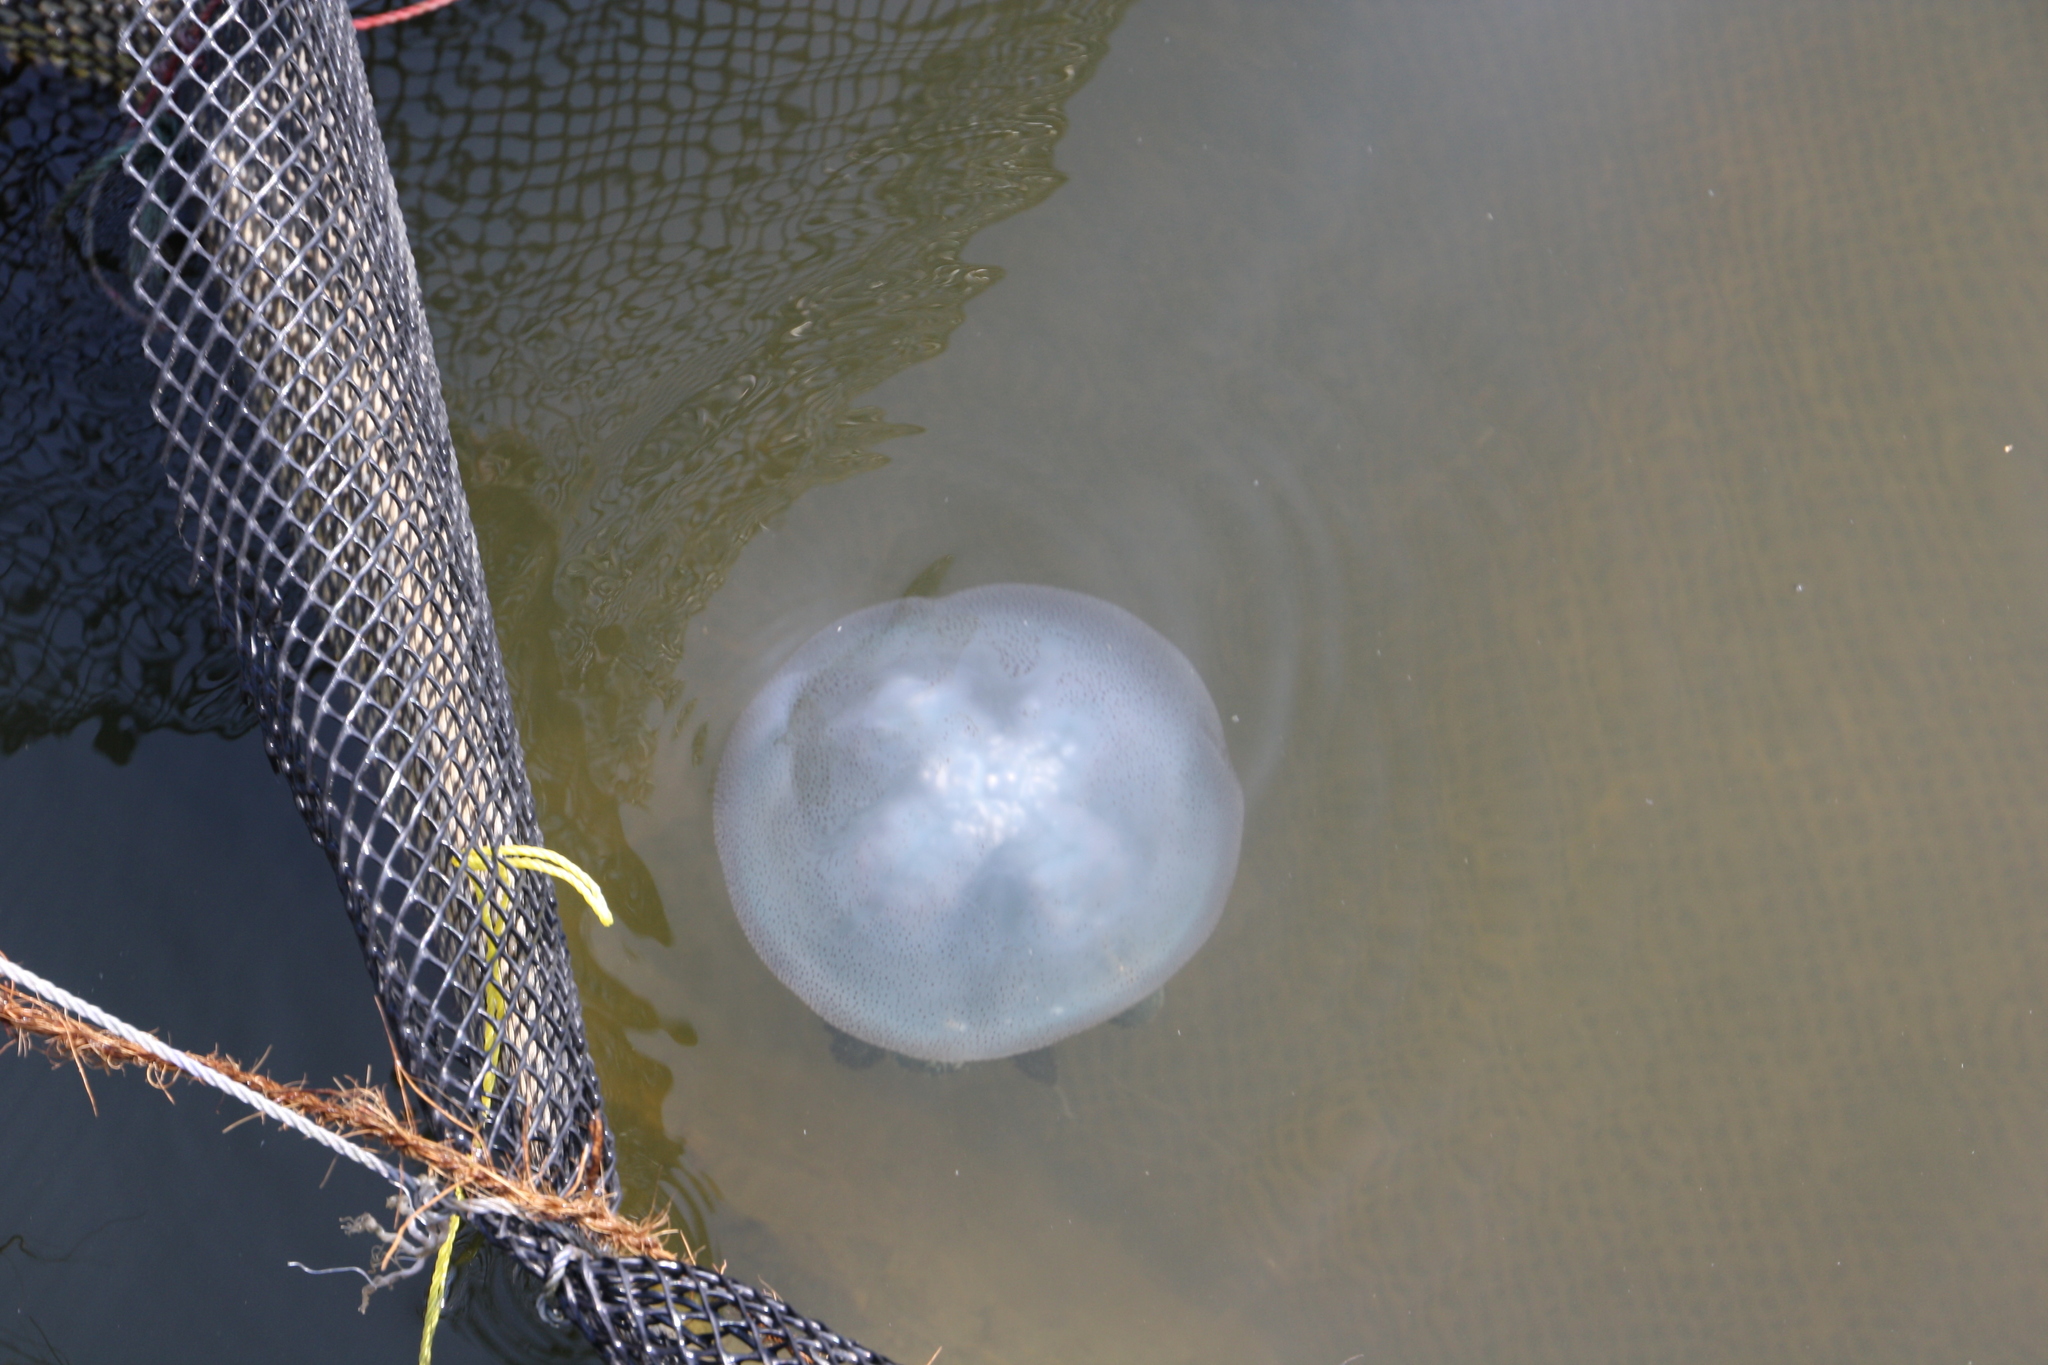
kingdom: Animalia
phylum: Cnidaria
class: Scyphozoa
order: Rhizostomeae
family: Catostylidae
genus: Acromitus
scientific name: Acromitus flagellatus
